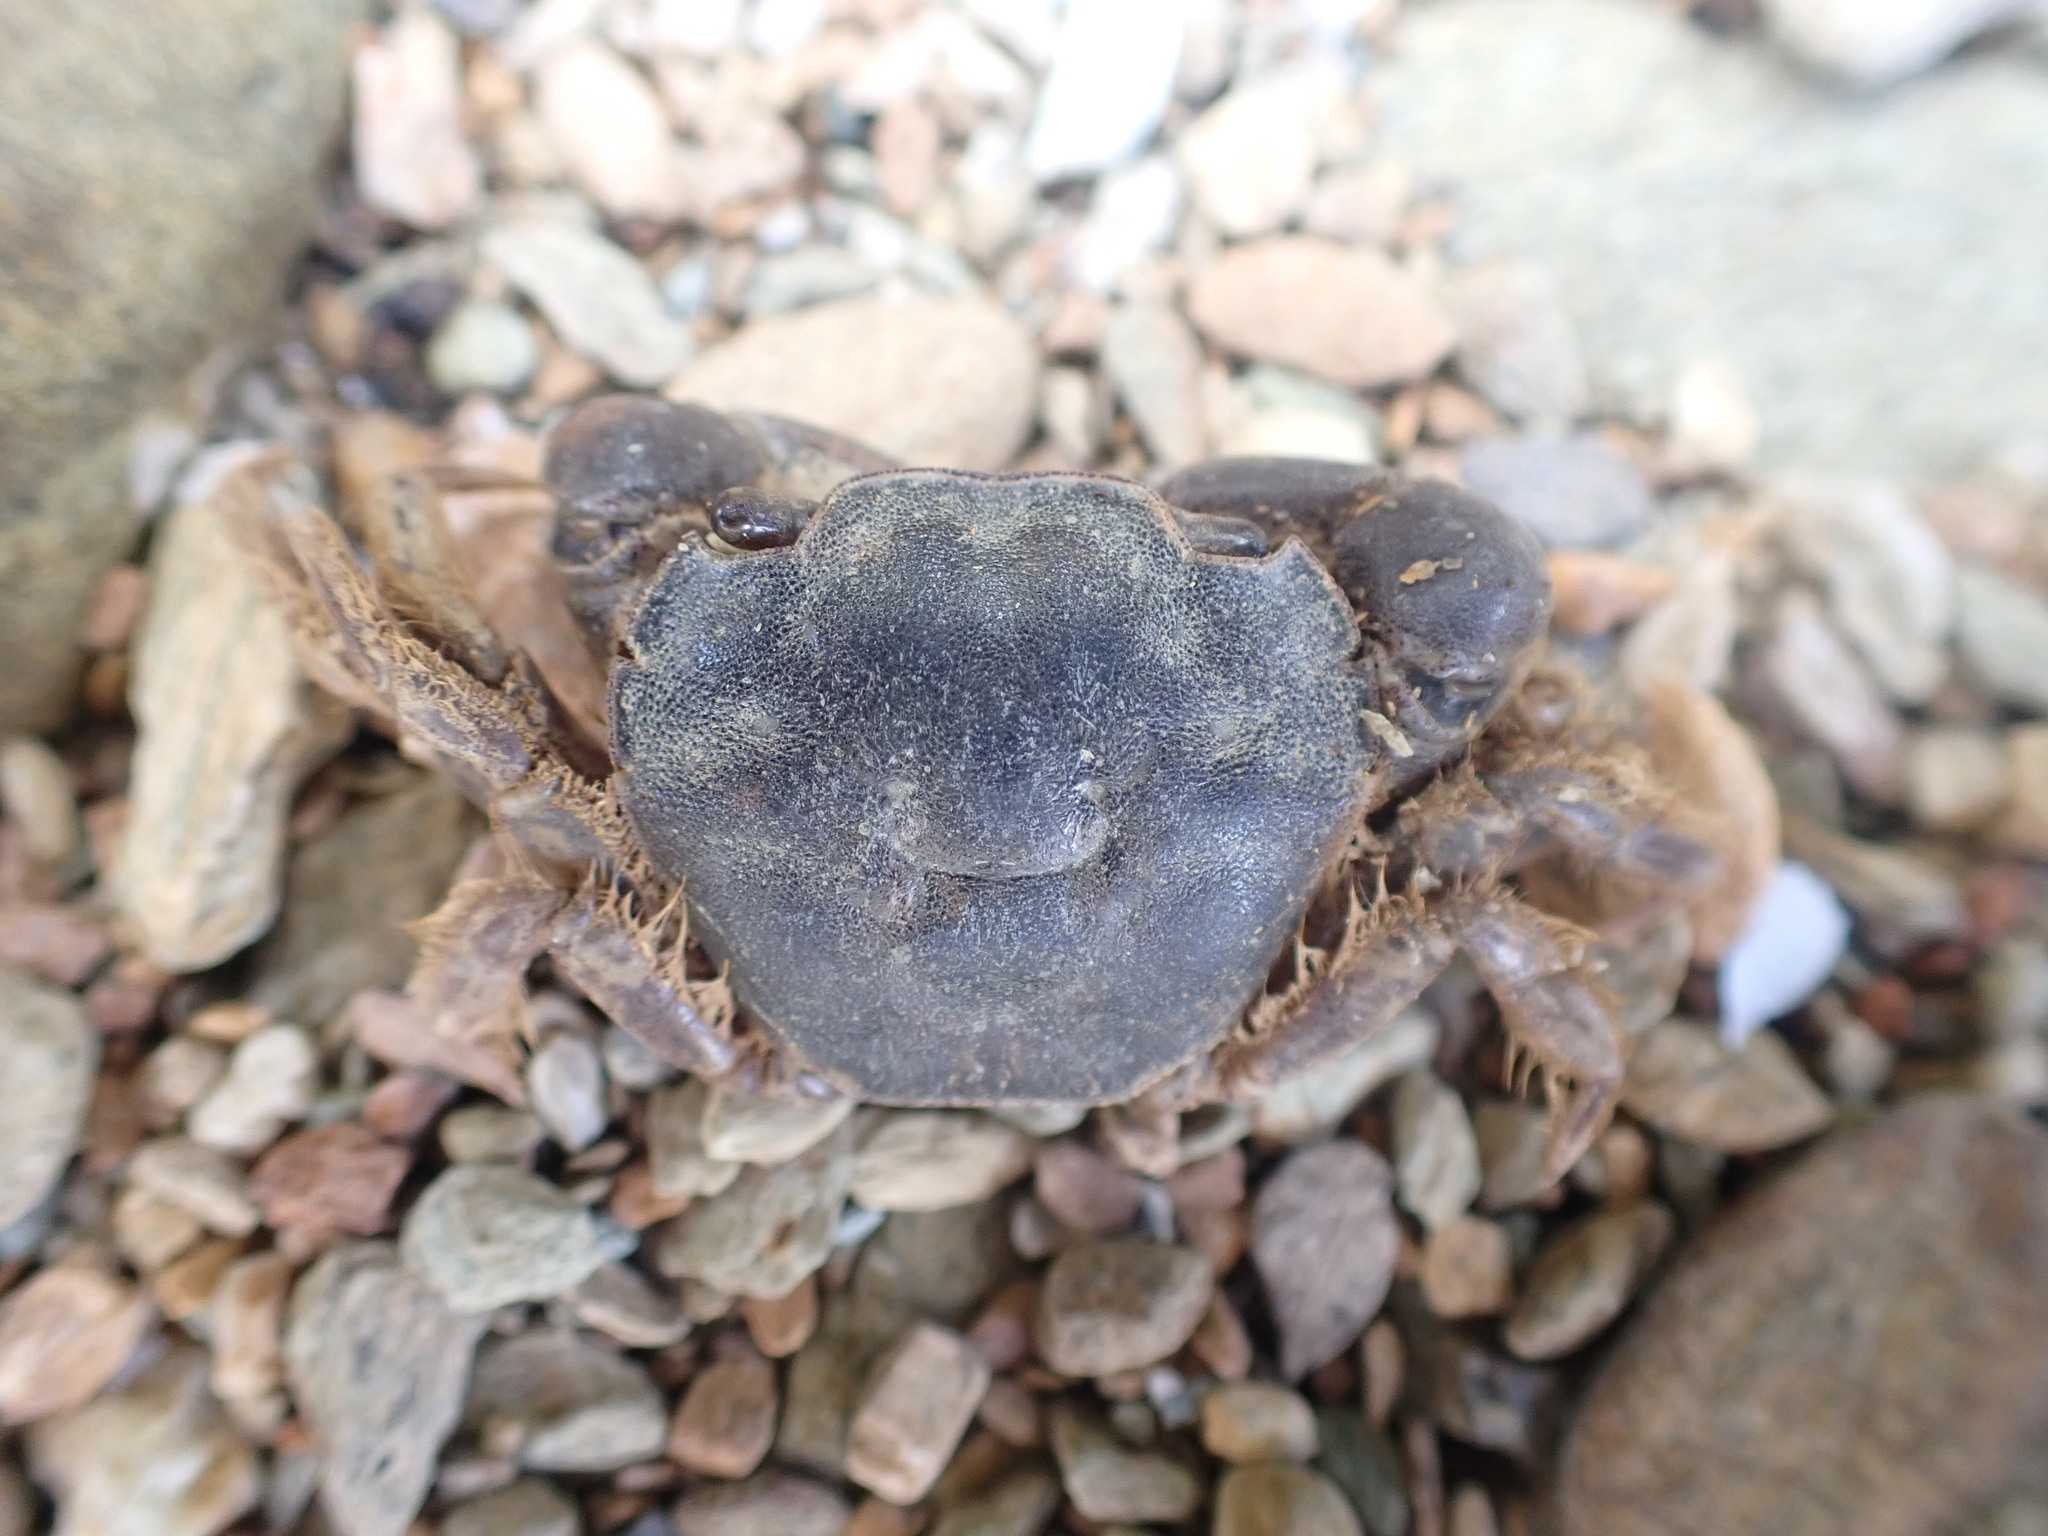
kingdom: Animalia
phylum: Arthropoda
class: Malacostraca
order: Decapoda
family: Varunidae
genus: Hemigrapsus
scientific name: Hemigrapsus crenulatus
